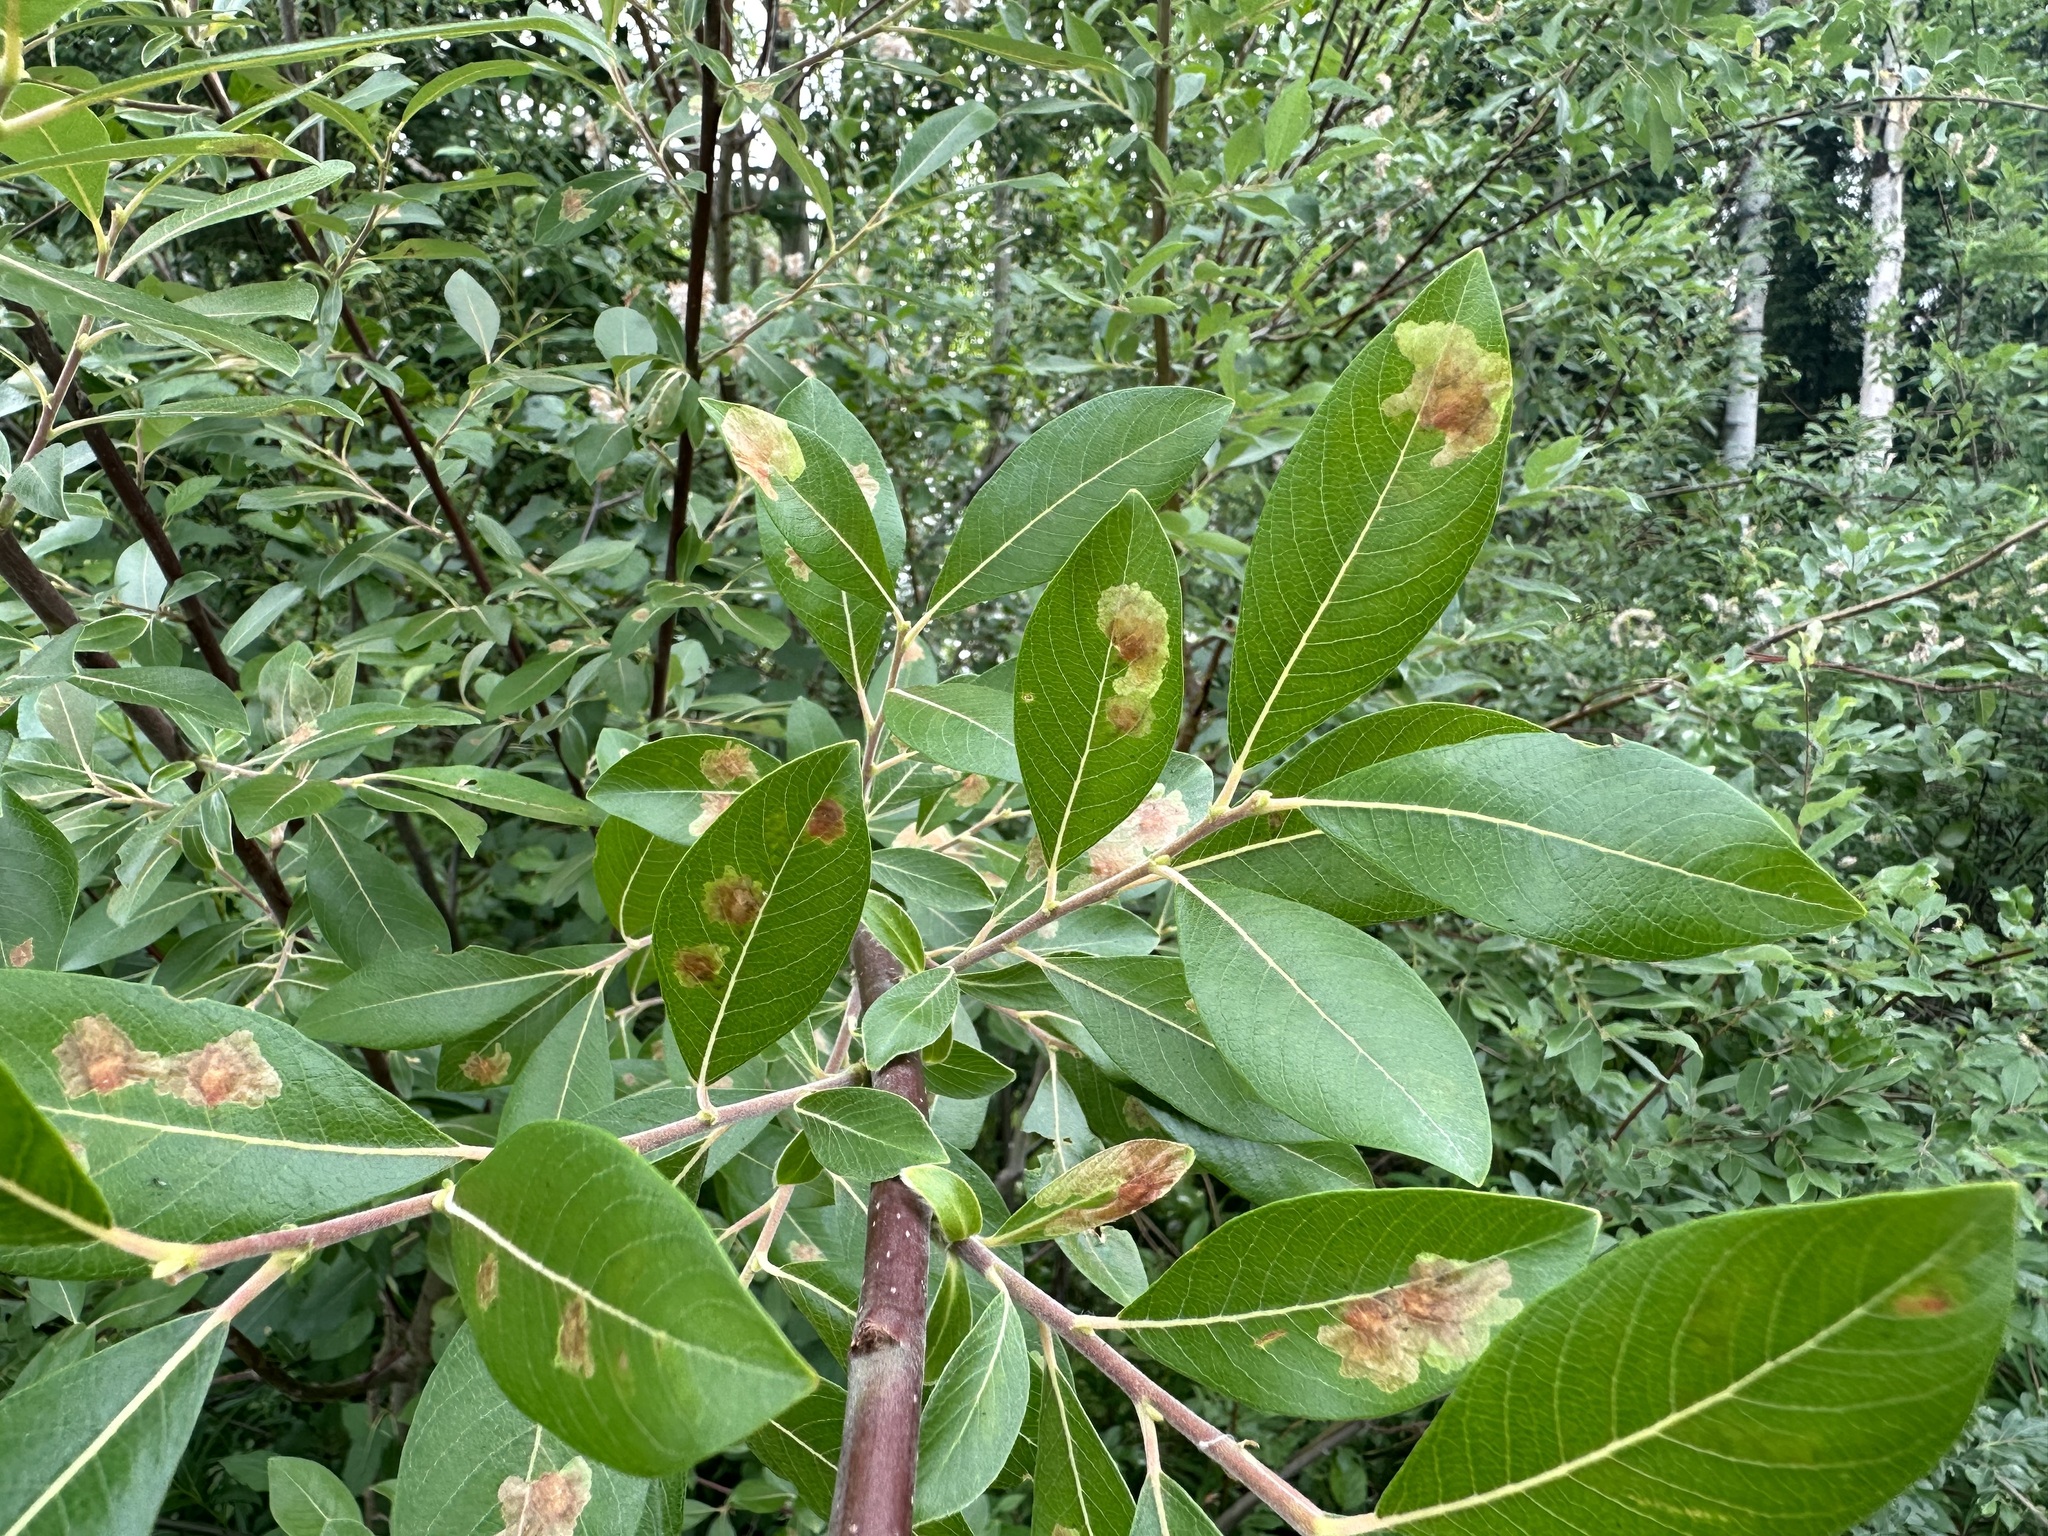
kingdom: Animalia
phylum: Arthropoda
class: Insecta
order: Lepidoptera
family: Gracillariidae
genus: Micrurapteryx
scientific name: Micrurapteryx salicifoliella
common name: Willow leaf blotch miner moth
